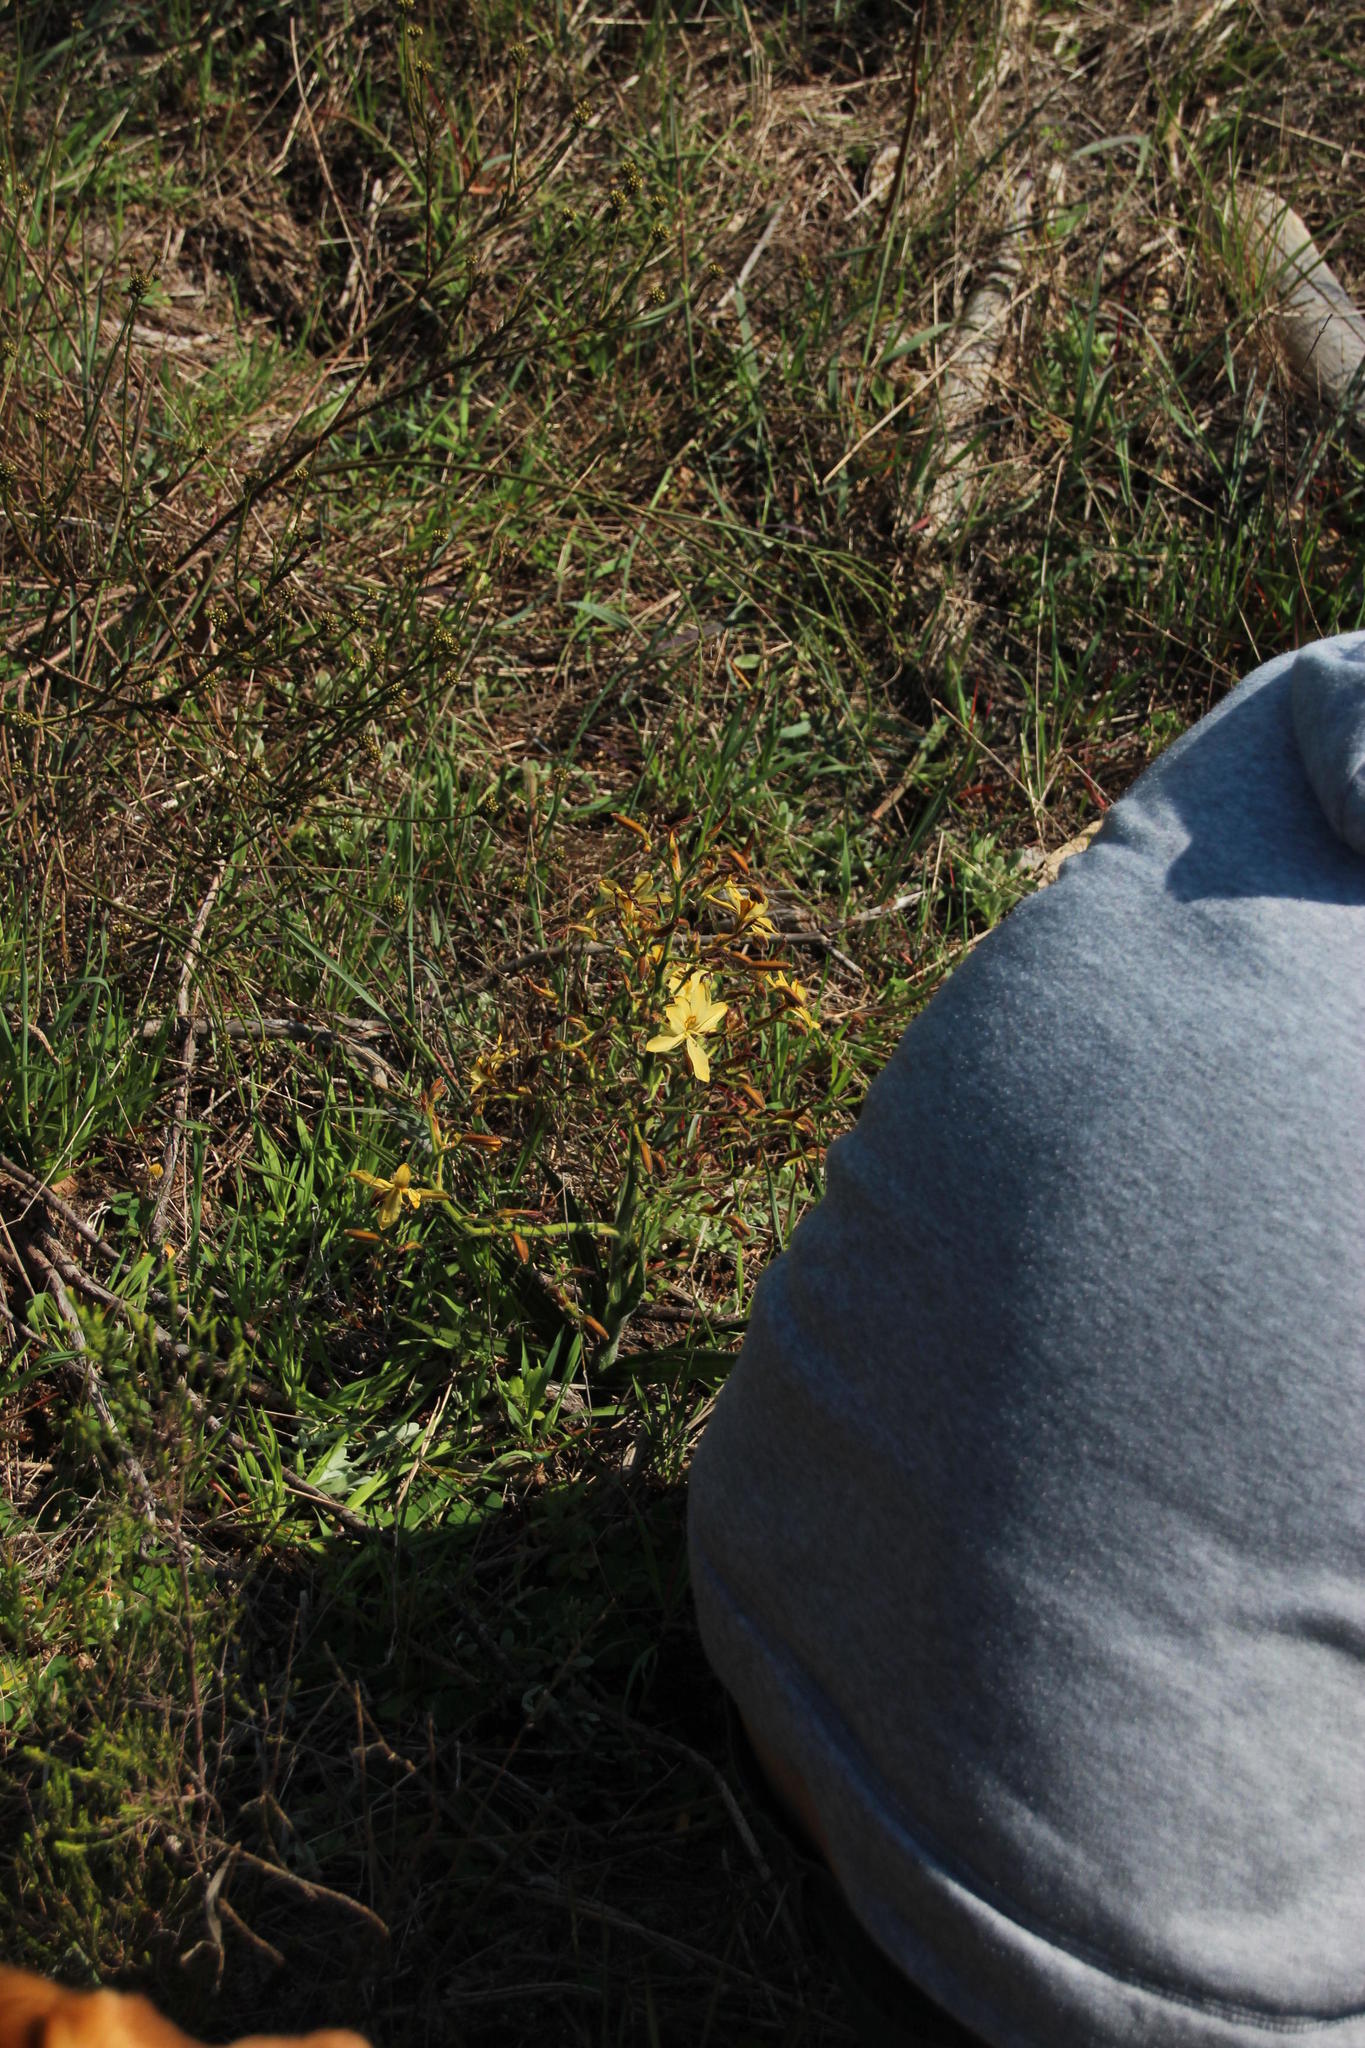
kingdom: Plantae
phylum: Tracheophyta
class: Liliopsida
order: Commelinales
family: Haemodoraceae
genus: Wachendorfia
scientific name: Wachendorfia paniculata
